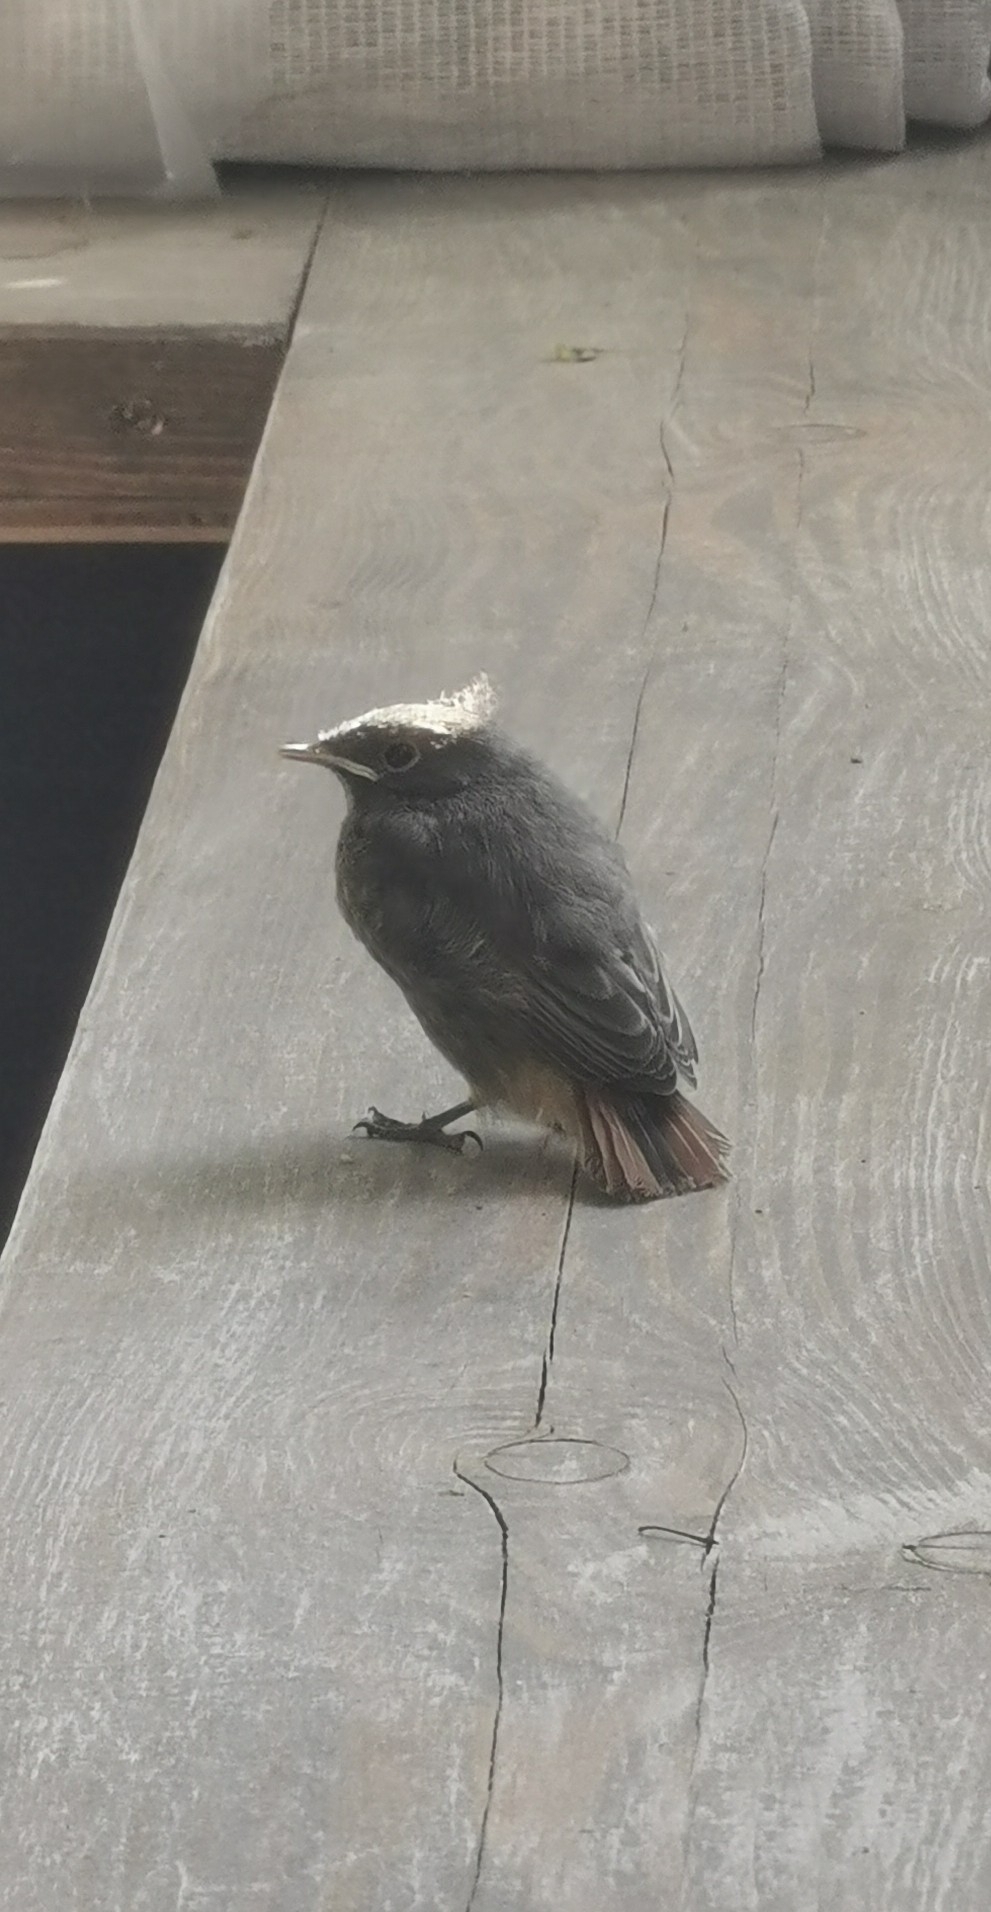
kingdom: Animalia
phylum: Chordata
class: Aves
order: Passeriformes
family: Muscicapidae
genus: Phoenicurus
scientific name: Phoenicurus ochruros
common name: Black redstart
